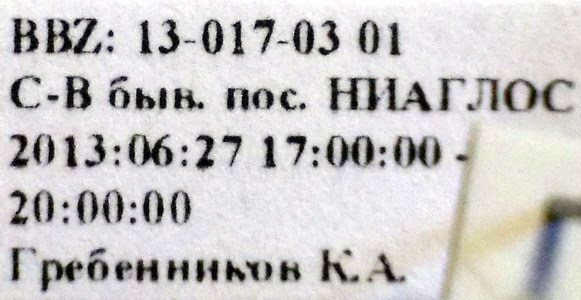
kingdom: Animalia
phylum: Arthropoda
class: Insecta
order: Hemiptera
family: Miridae
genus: Orthops
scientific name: Orthops kalmii
